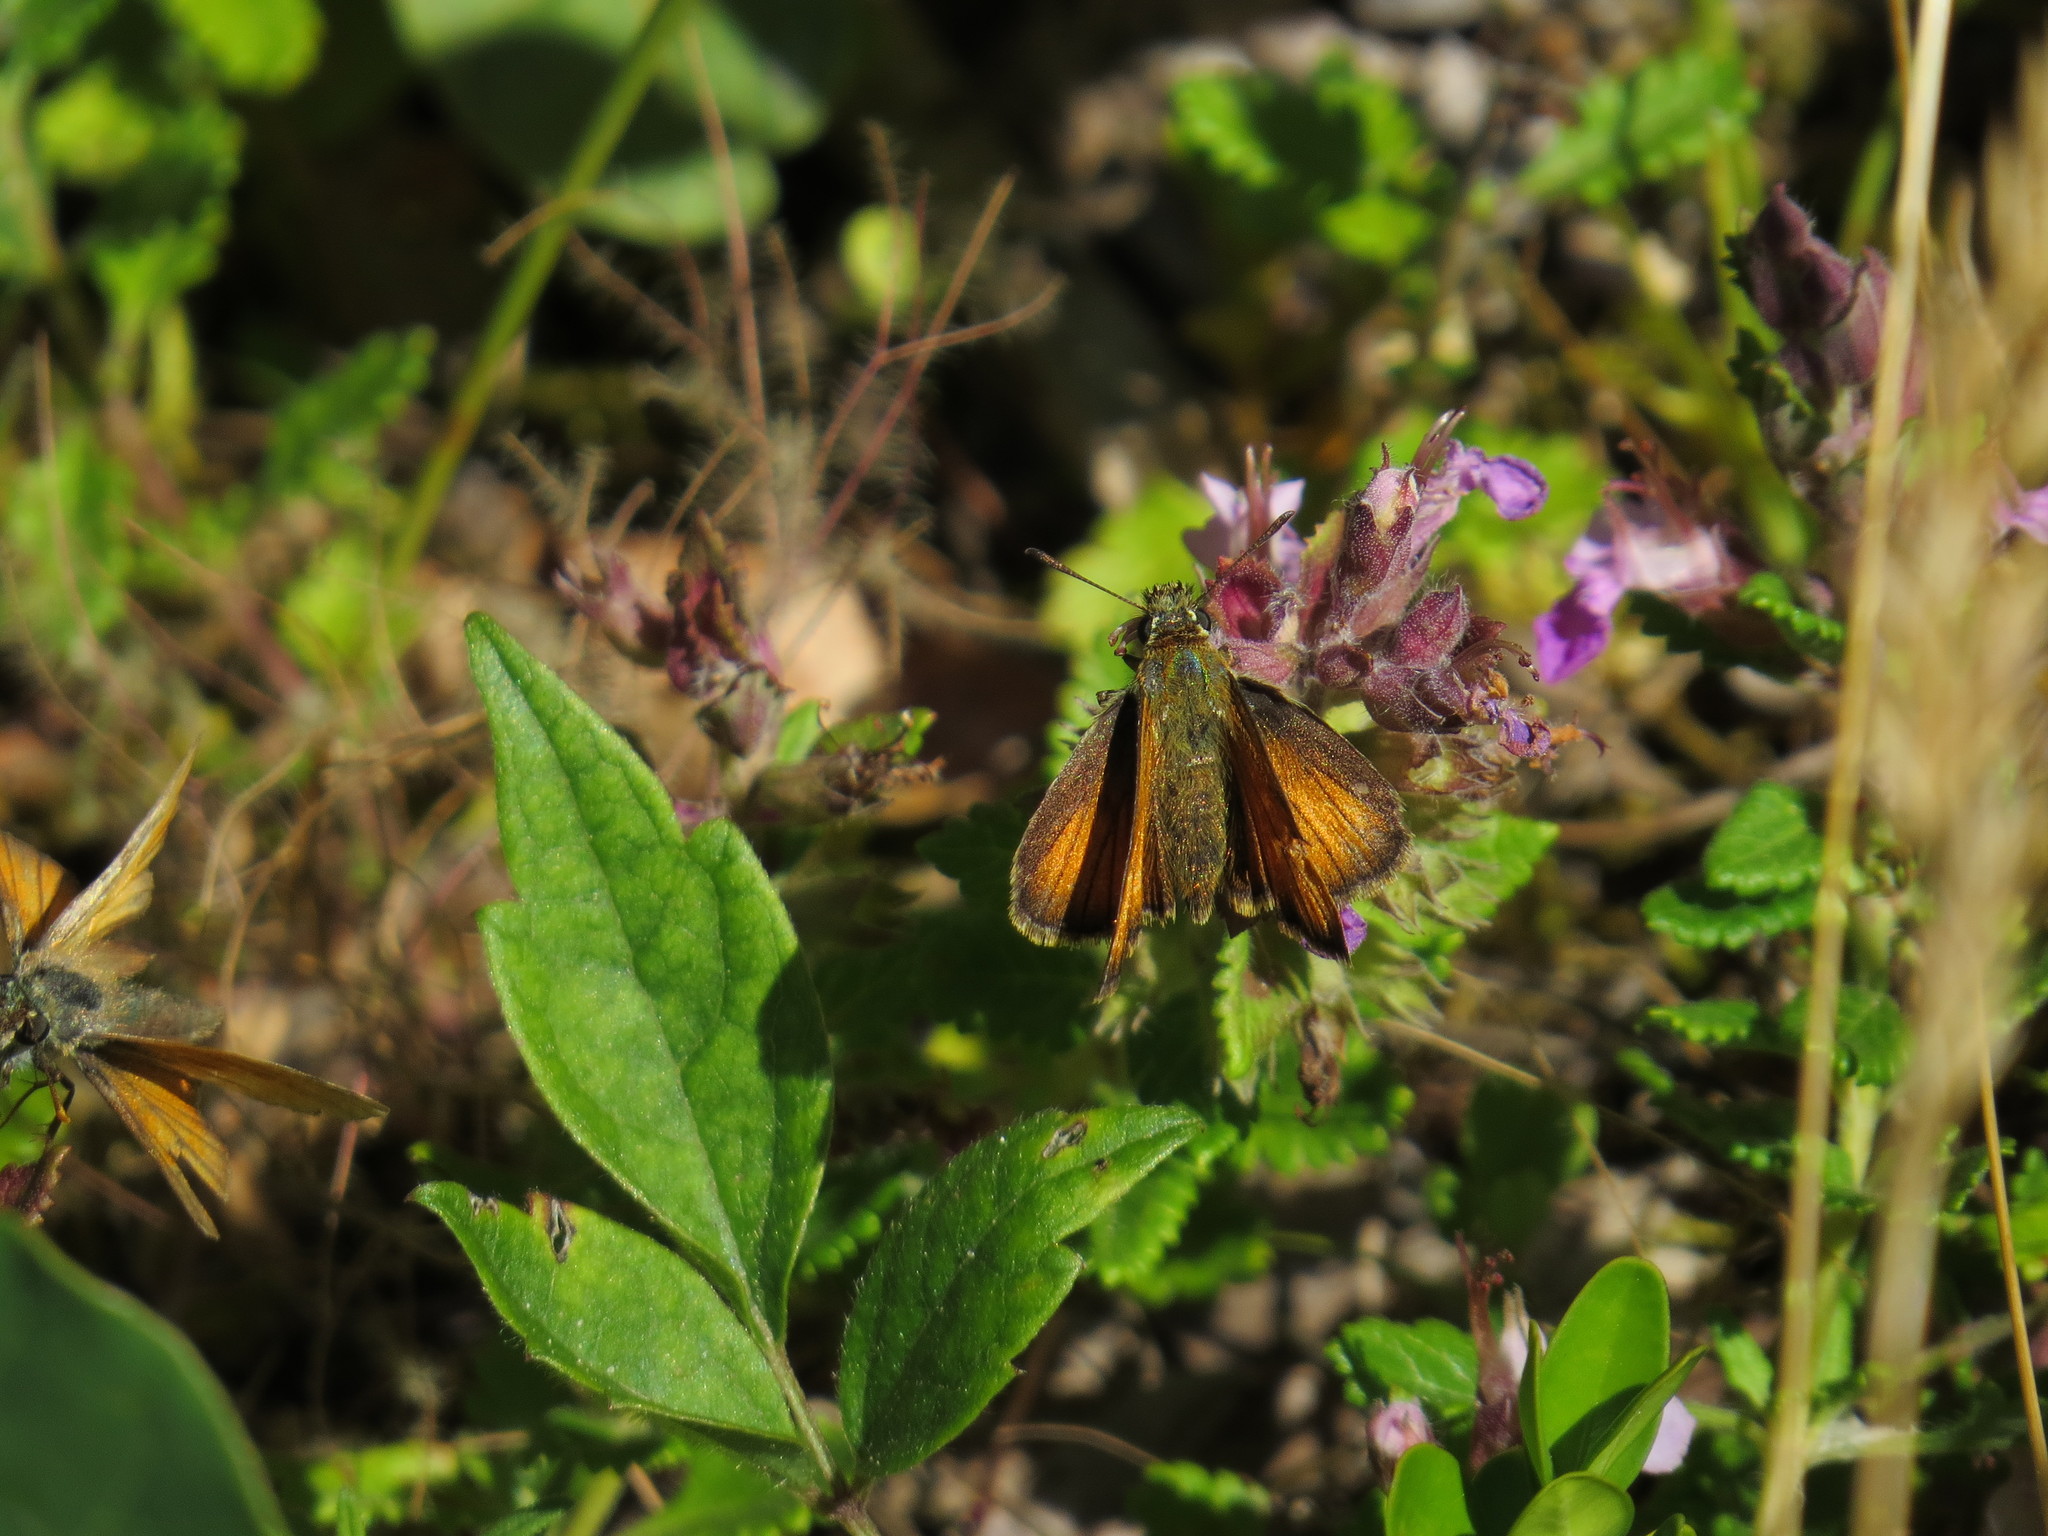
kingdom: Animalia
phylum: Arthropoda
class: Insecta
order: Lepidoptera
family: Hesperiidae
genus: Thymelicus
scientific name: Thymelicus lineola
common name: Essex skipper
